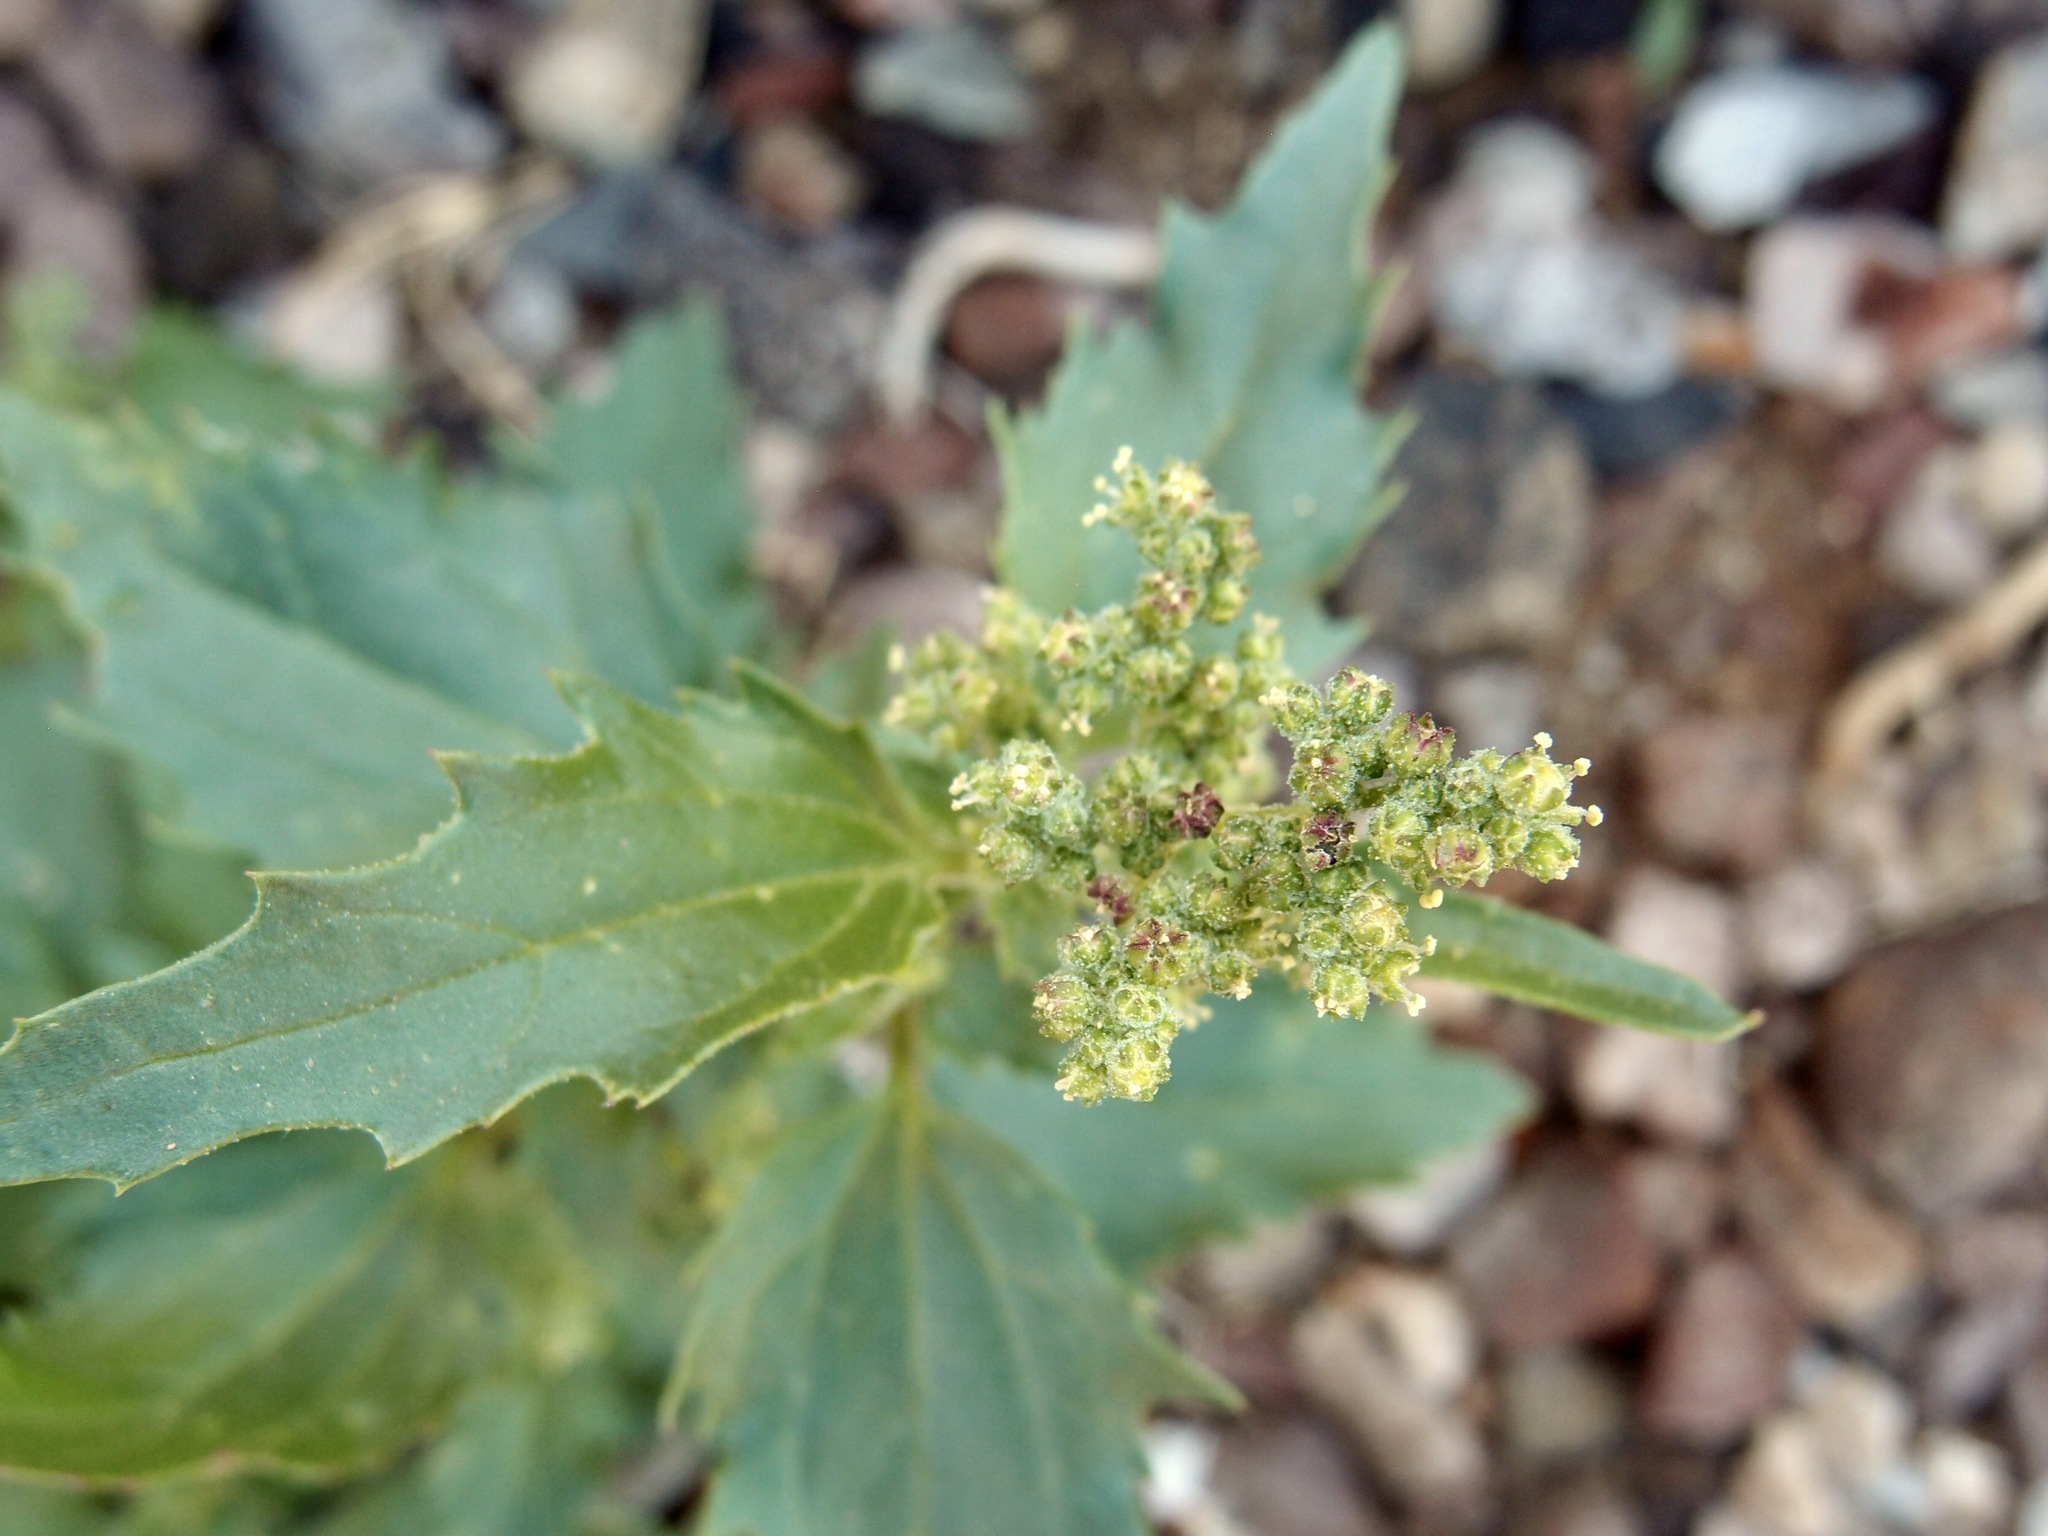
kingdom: Plantae
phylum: Tracheophyta
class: Magnoliopsida
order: Caryophyllales
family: Amaranthaceae
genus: Chenopodiastrum
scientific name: Chenopodiastrum murale
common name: Sowbane
